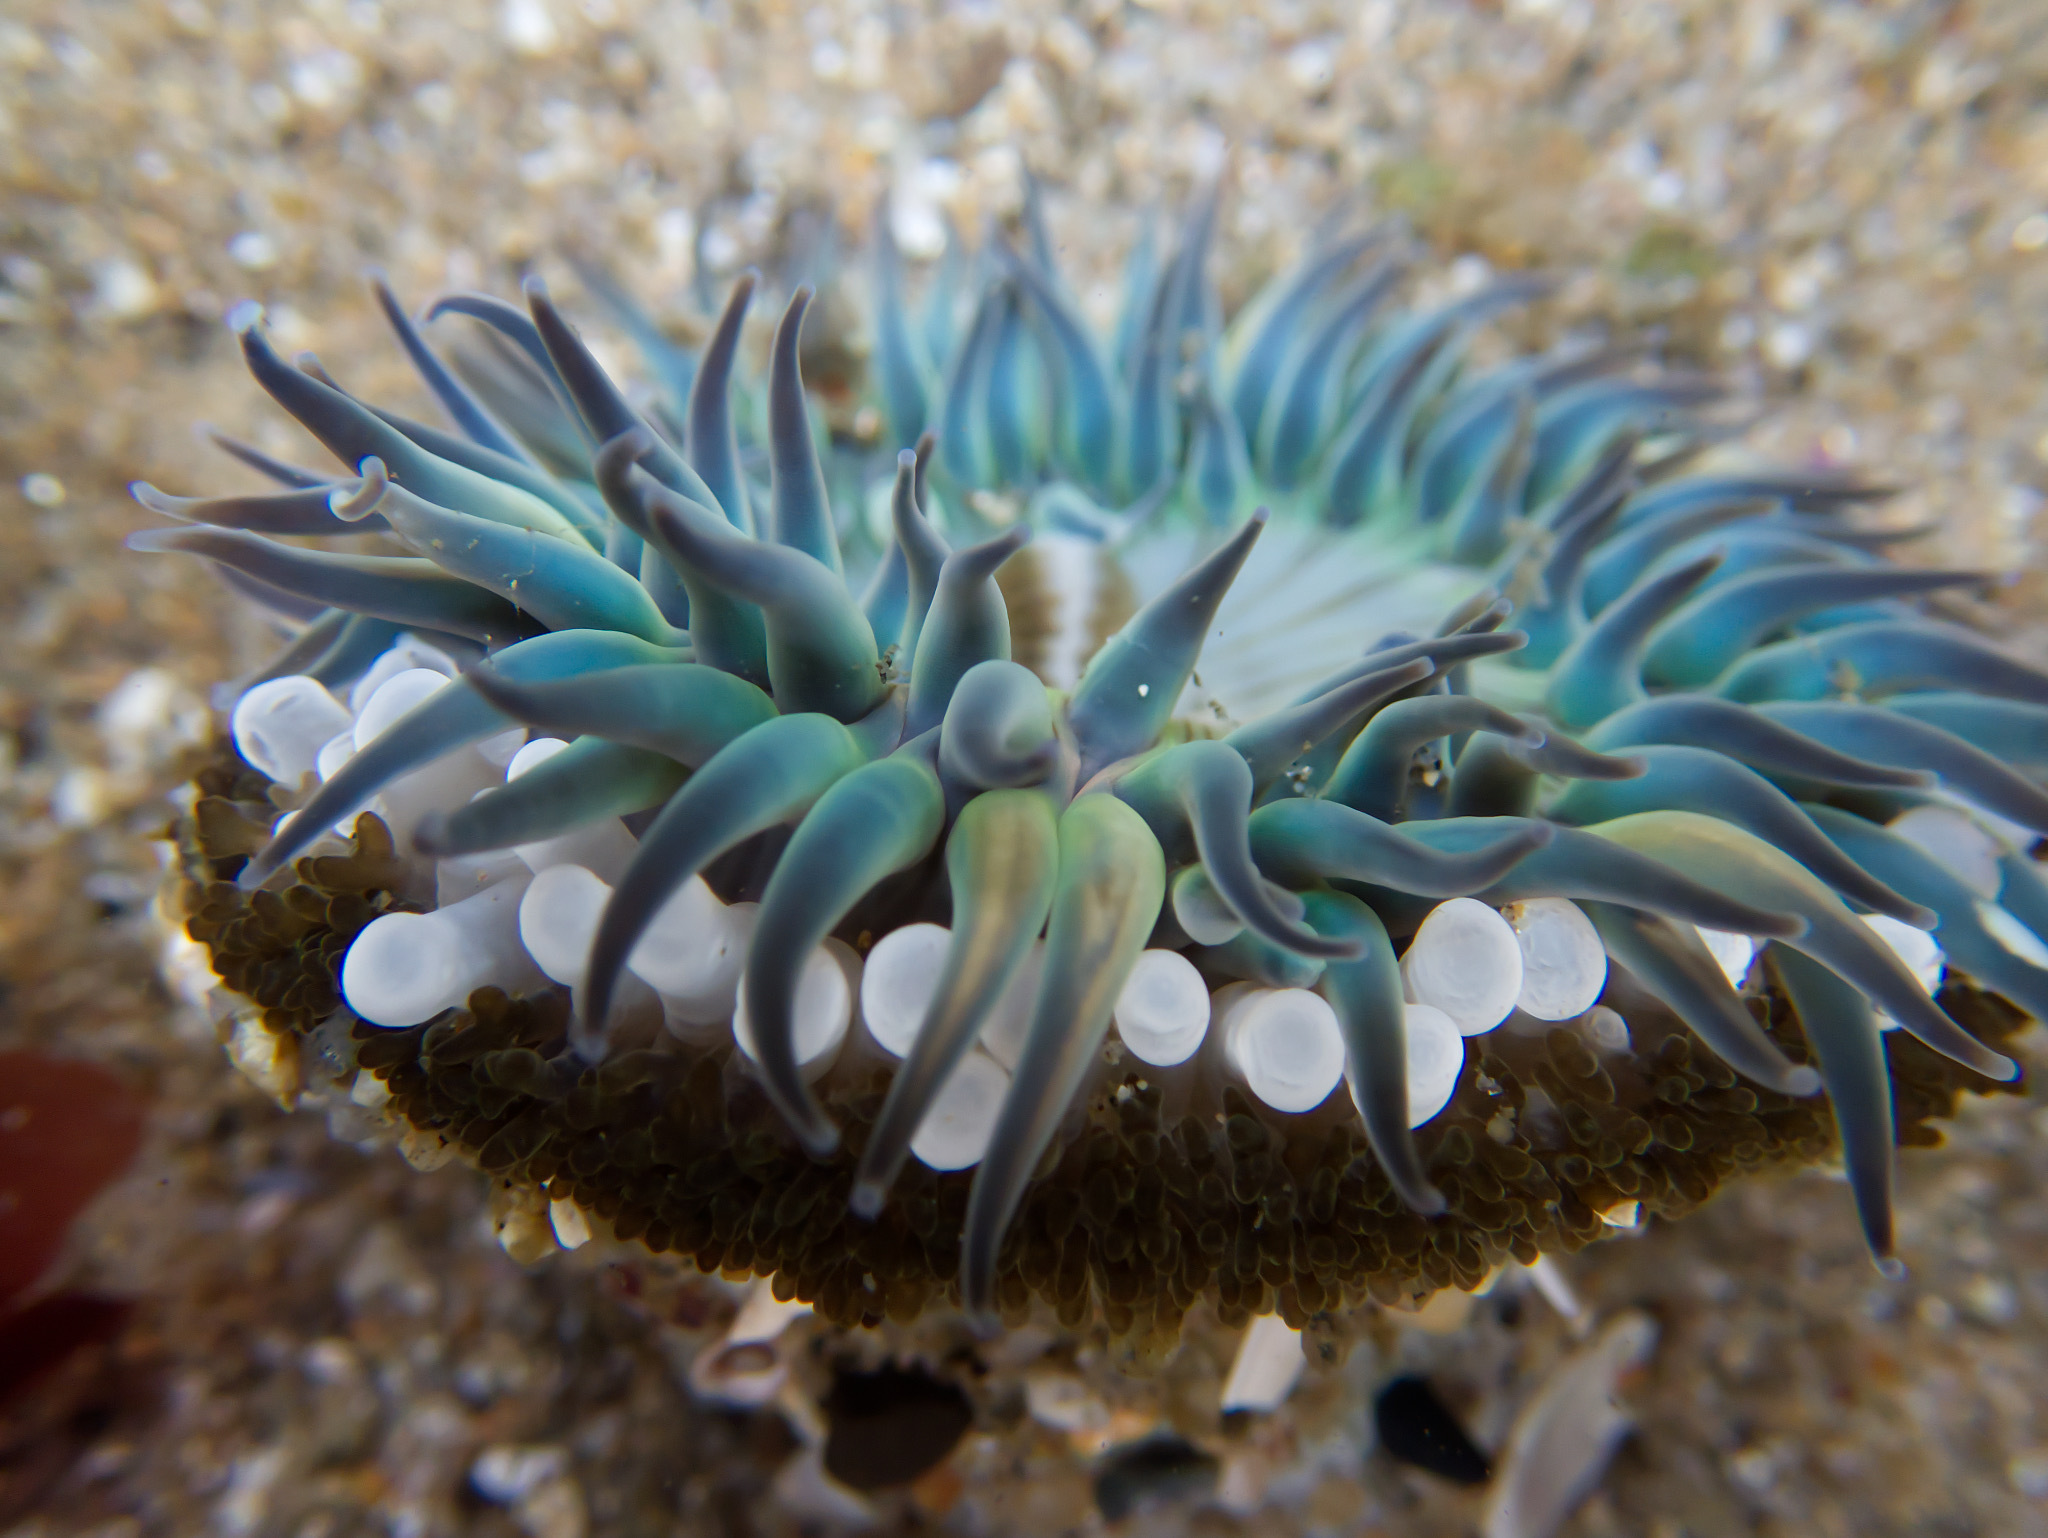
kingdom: Animalia
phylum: Cnidaria
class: Anthozoa
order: Actiniaria
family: Actiniidae
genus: Anthopleura
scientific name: Anthopleura sola
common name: Sun anemone
